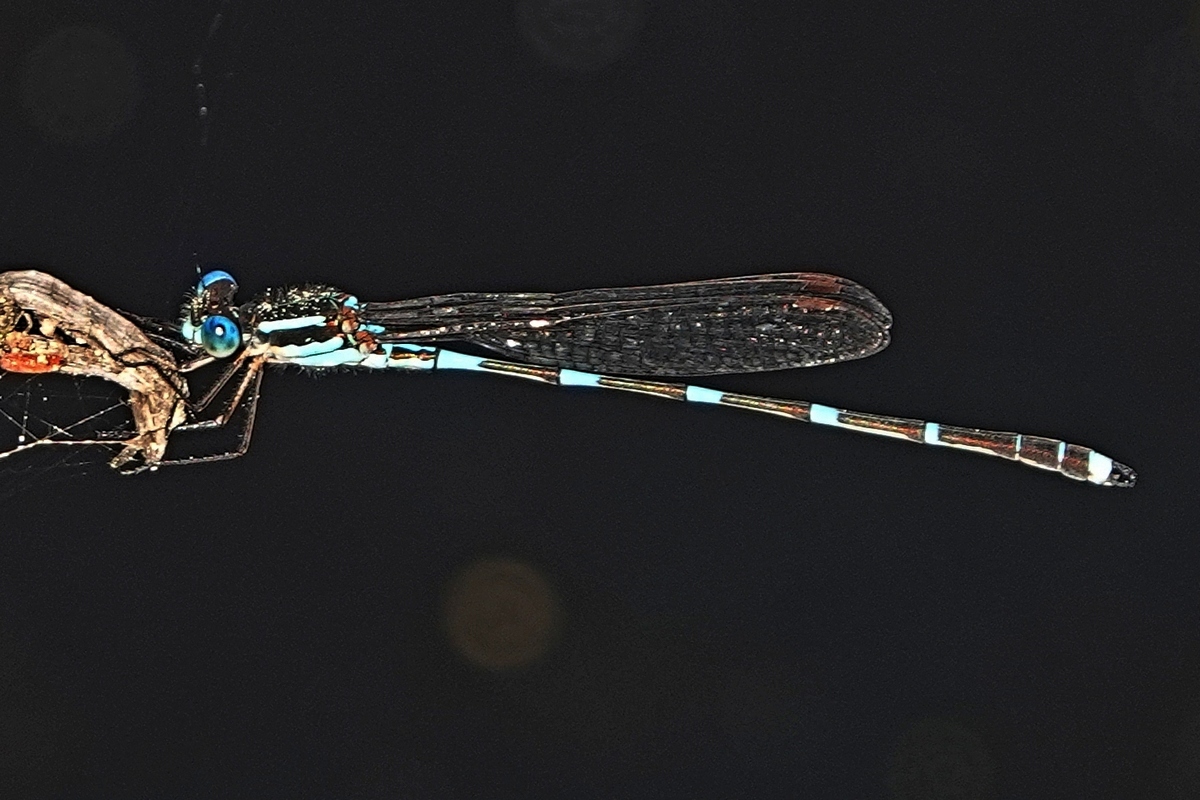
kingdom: Animalia
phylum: Arthropoda
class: Insecta
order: Odonata
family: Lestidae
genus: Austrolestes
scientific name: Austrolestes leda
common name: Wandering ringtail
